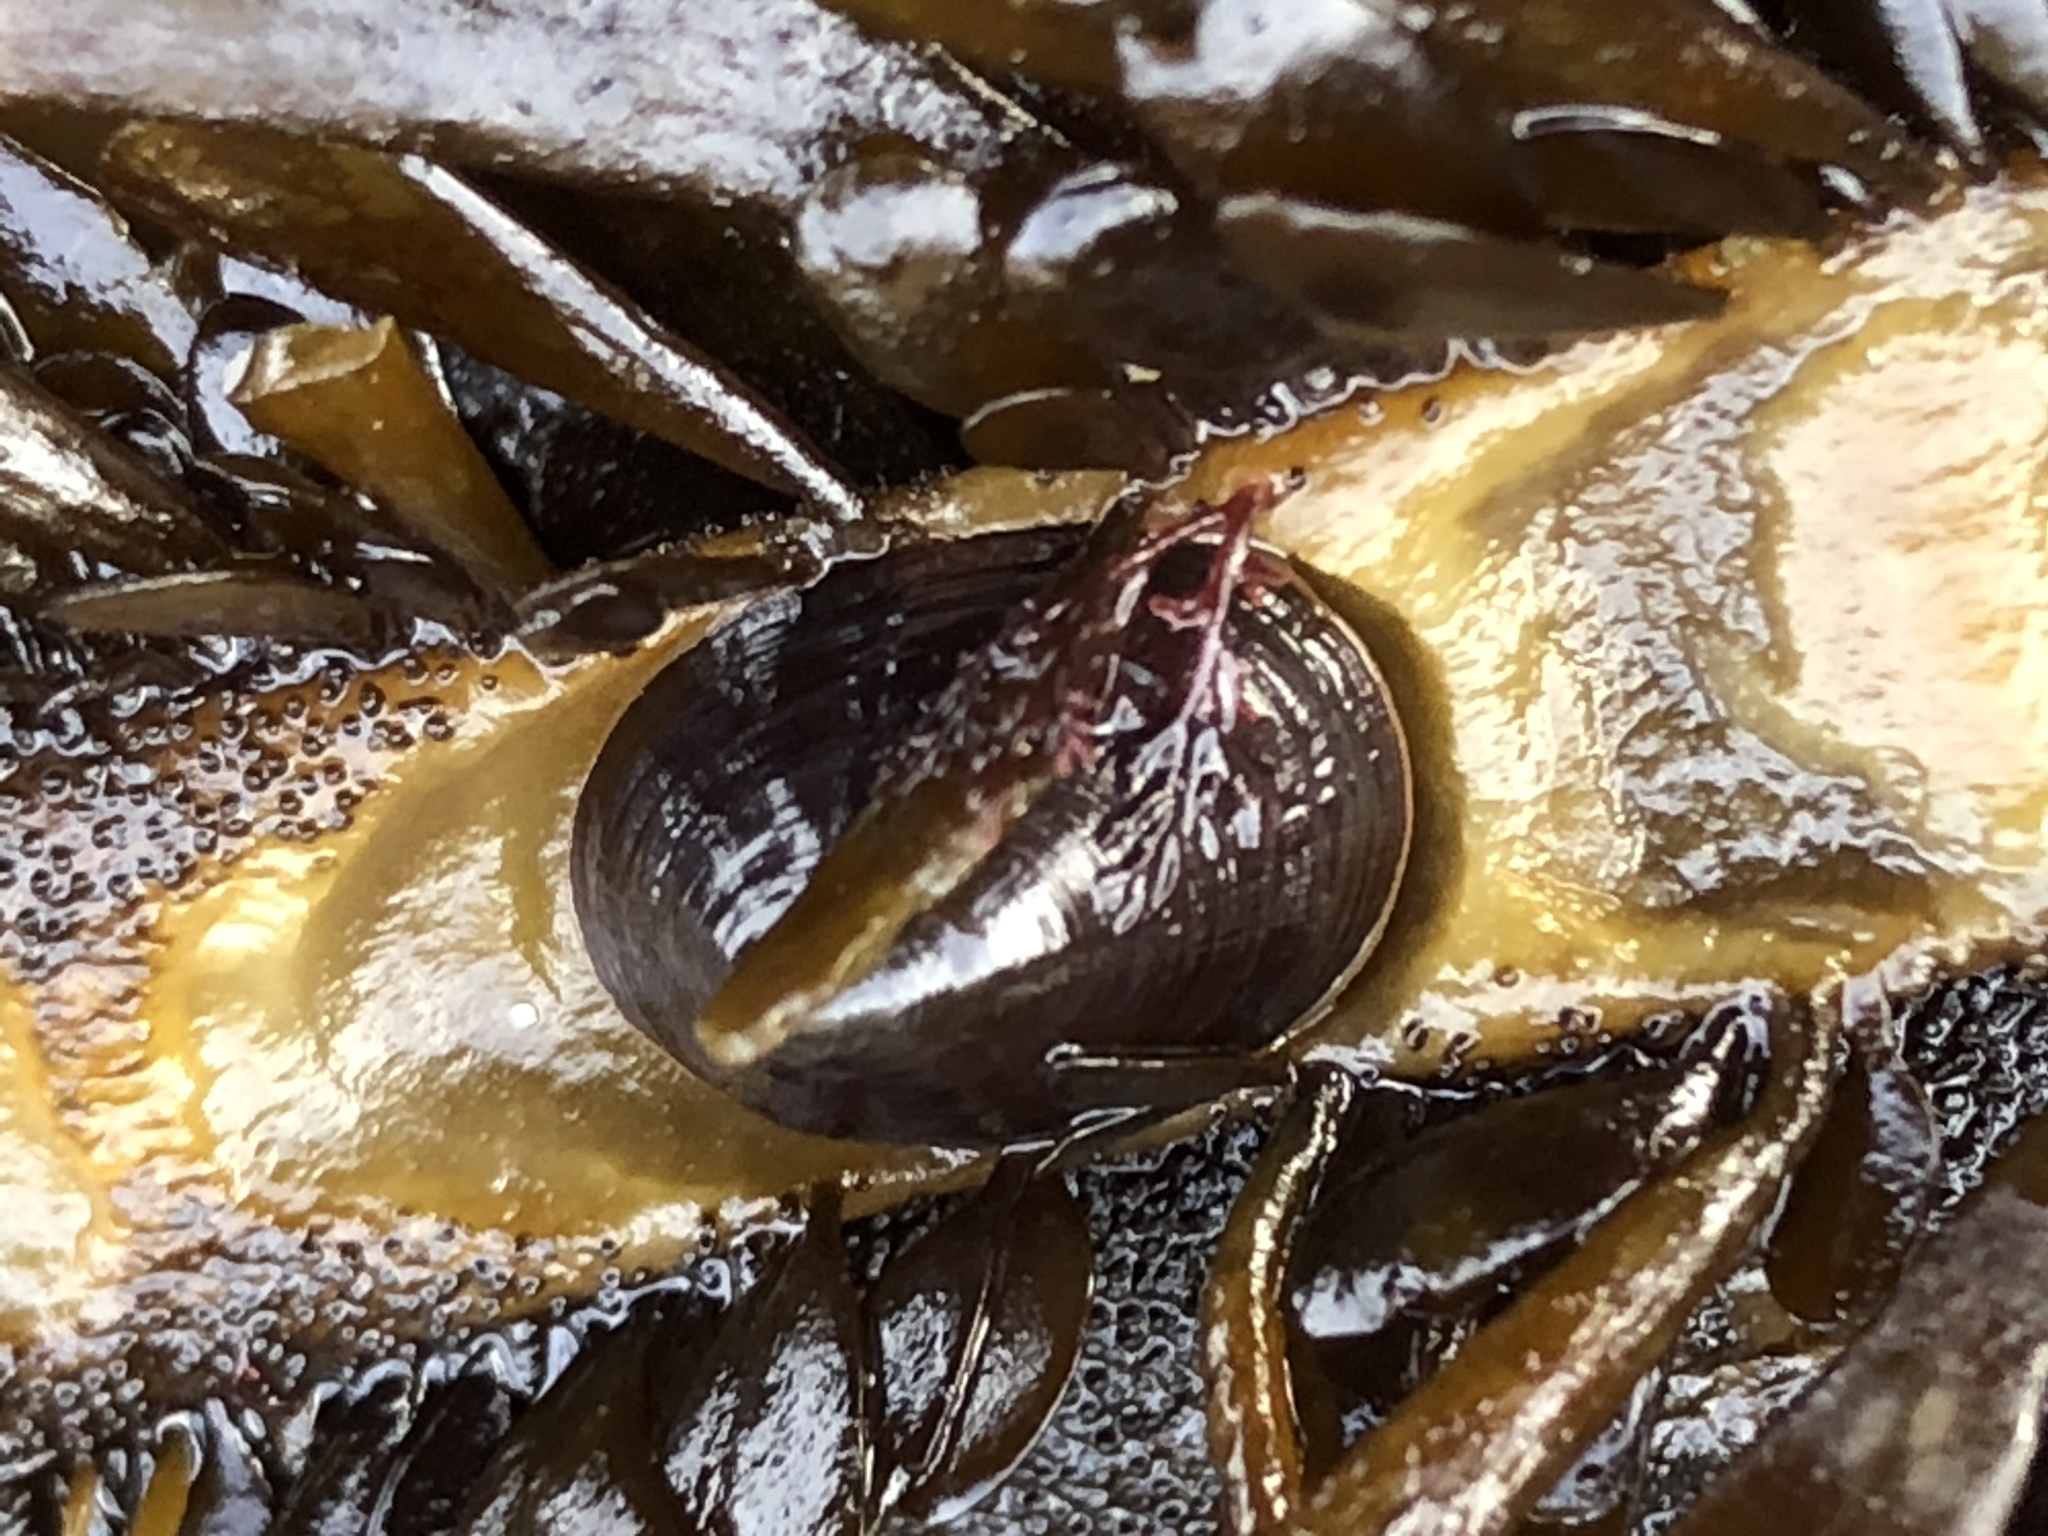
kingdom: Animalia
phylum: Mollusca
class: Gastropoda
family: Lottiidae
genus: Discurria
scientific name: Discurria insessa
